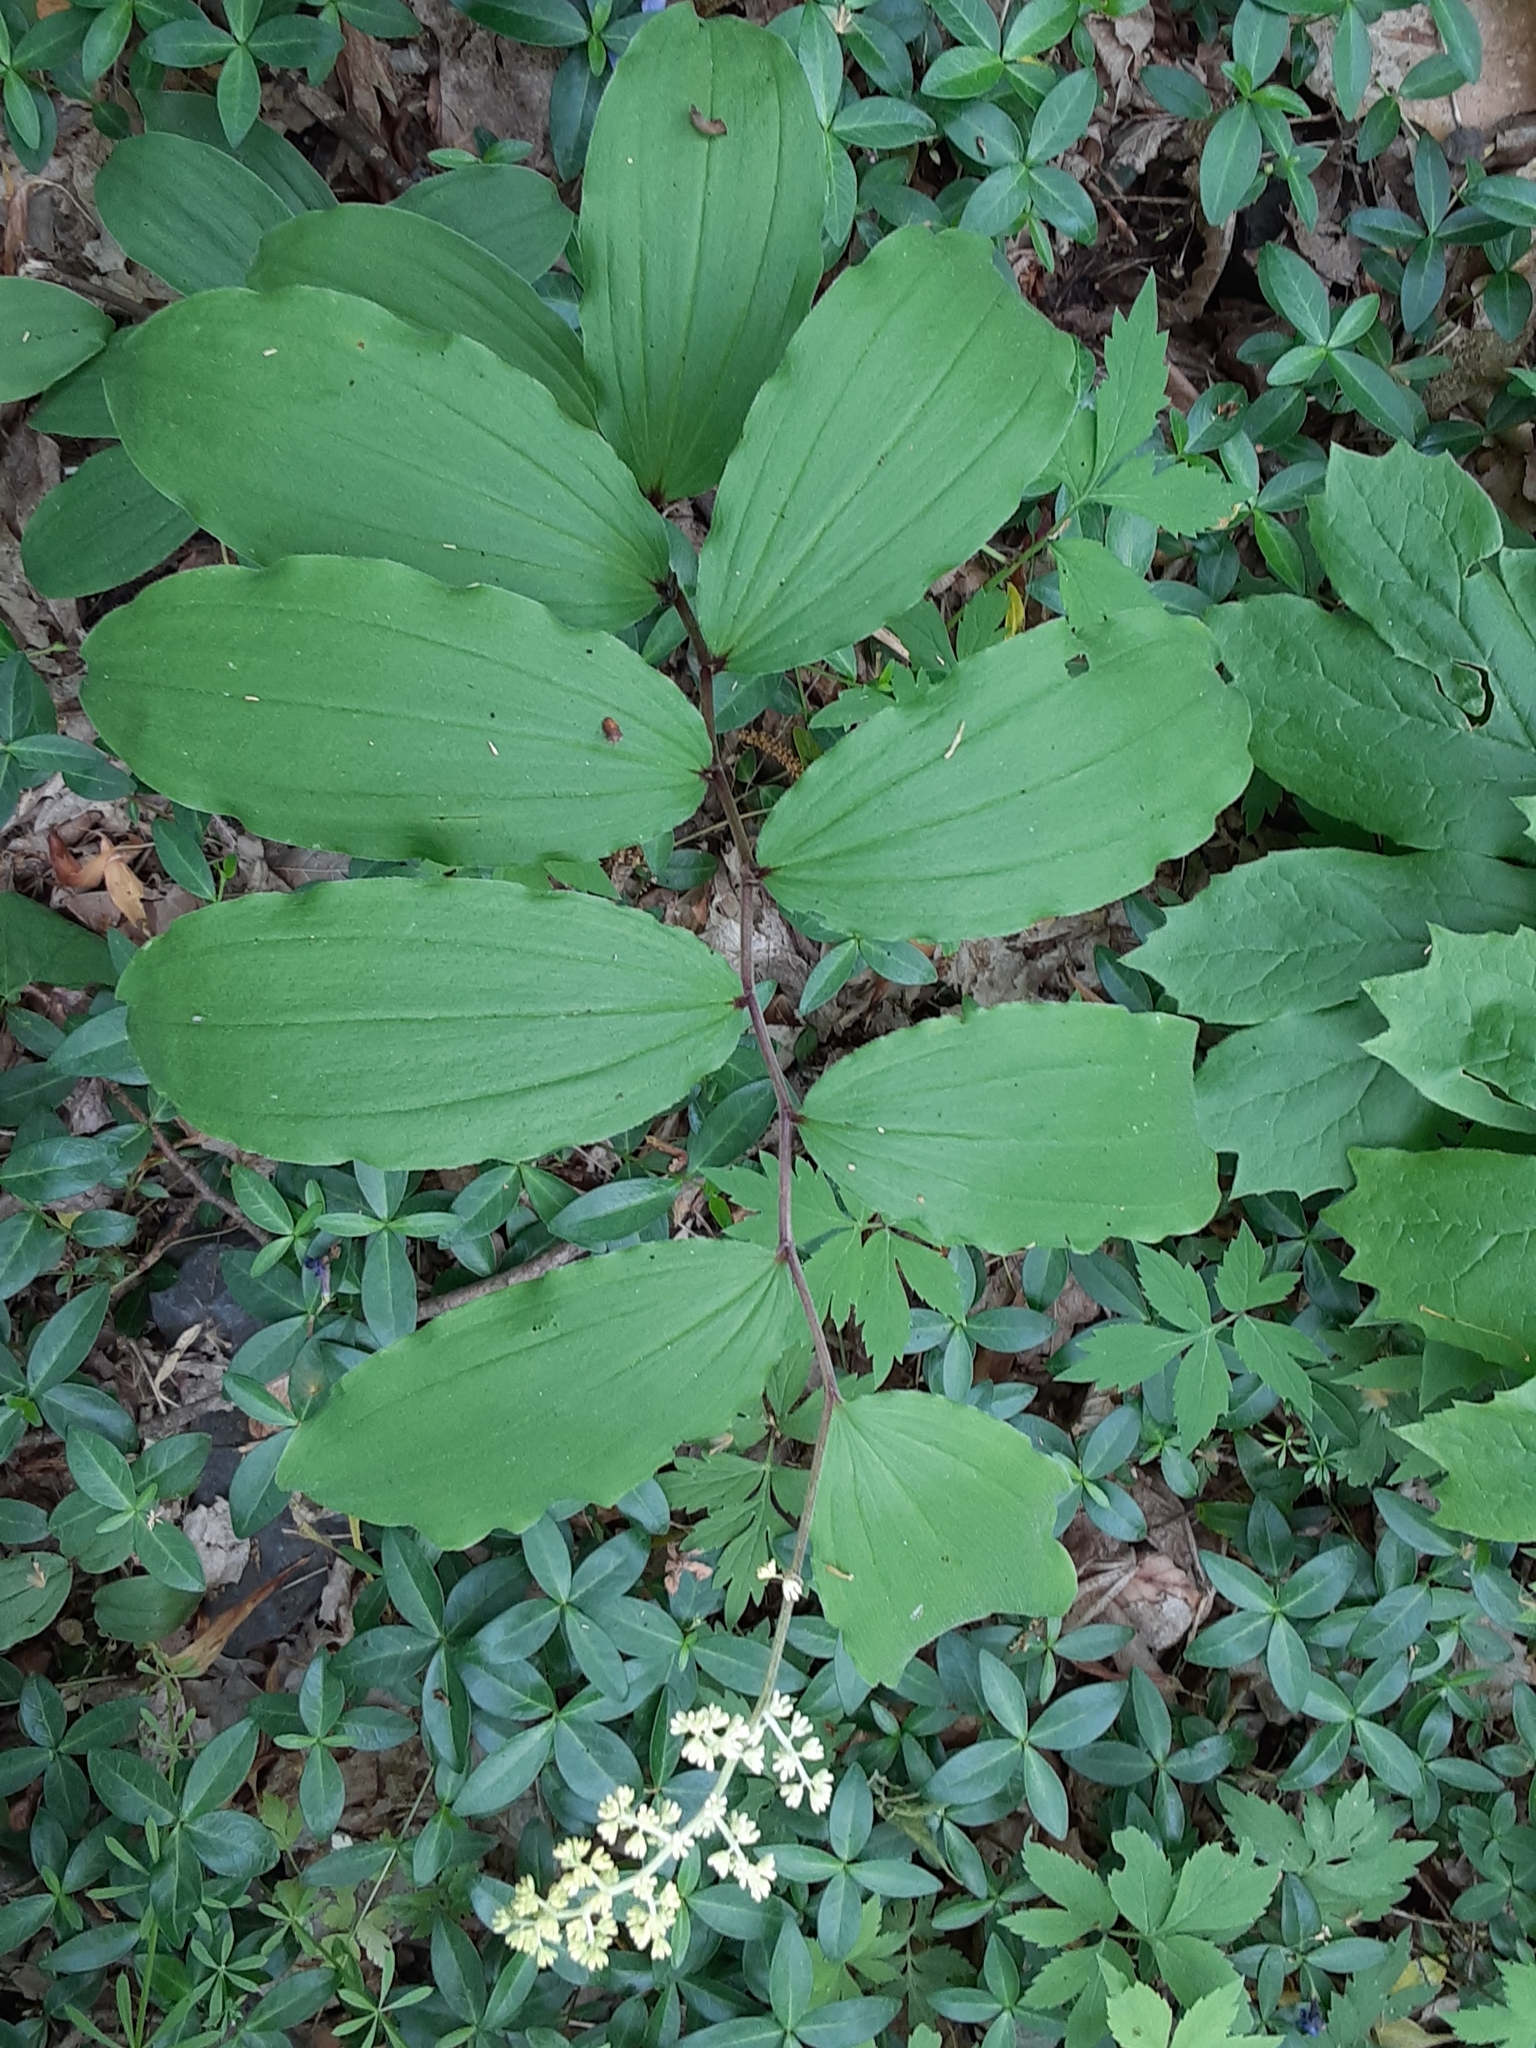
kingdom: Plantae
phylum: Tracheophyta
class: Liliopsida
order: Asparagales
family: Asparagaceae
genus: Maianthemum
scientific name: Maianthemum racemosum
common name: False spikenard
